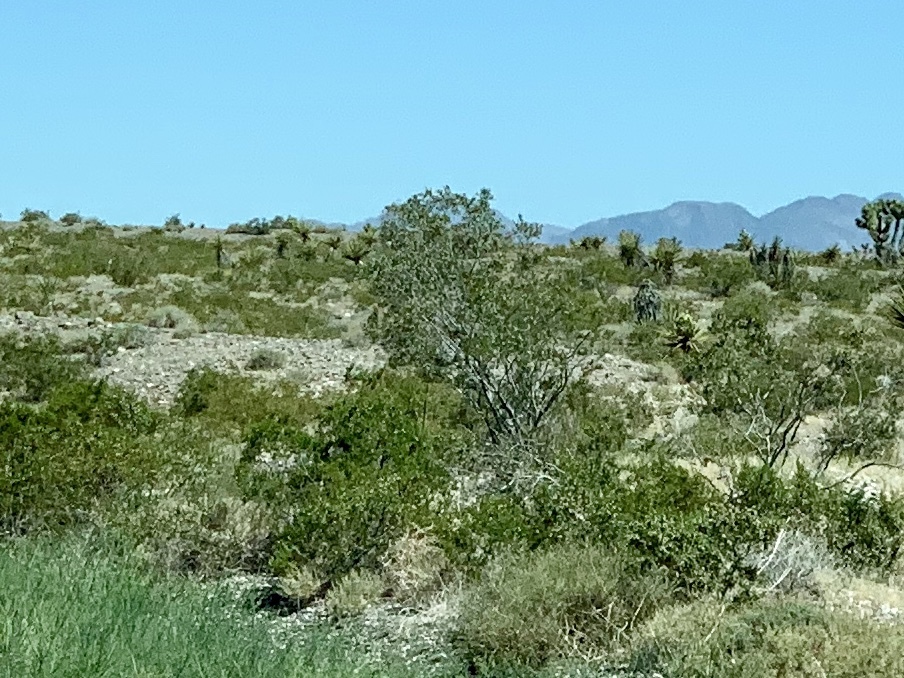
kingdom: Plantae
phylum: Tracheophyta
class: Magnoliopsida
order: Zygophyllales
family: Zygophyllaceae
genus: Larrea
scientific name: Larrea tridentata
